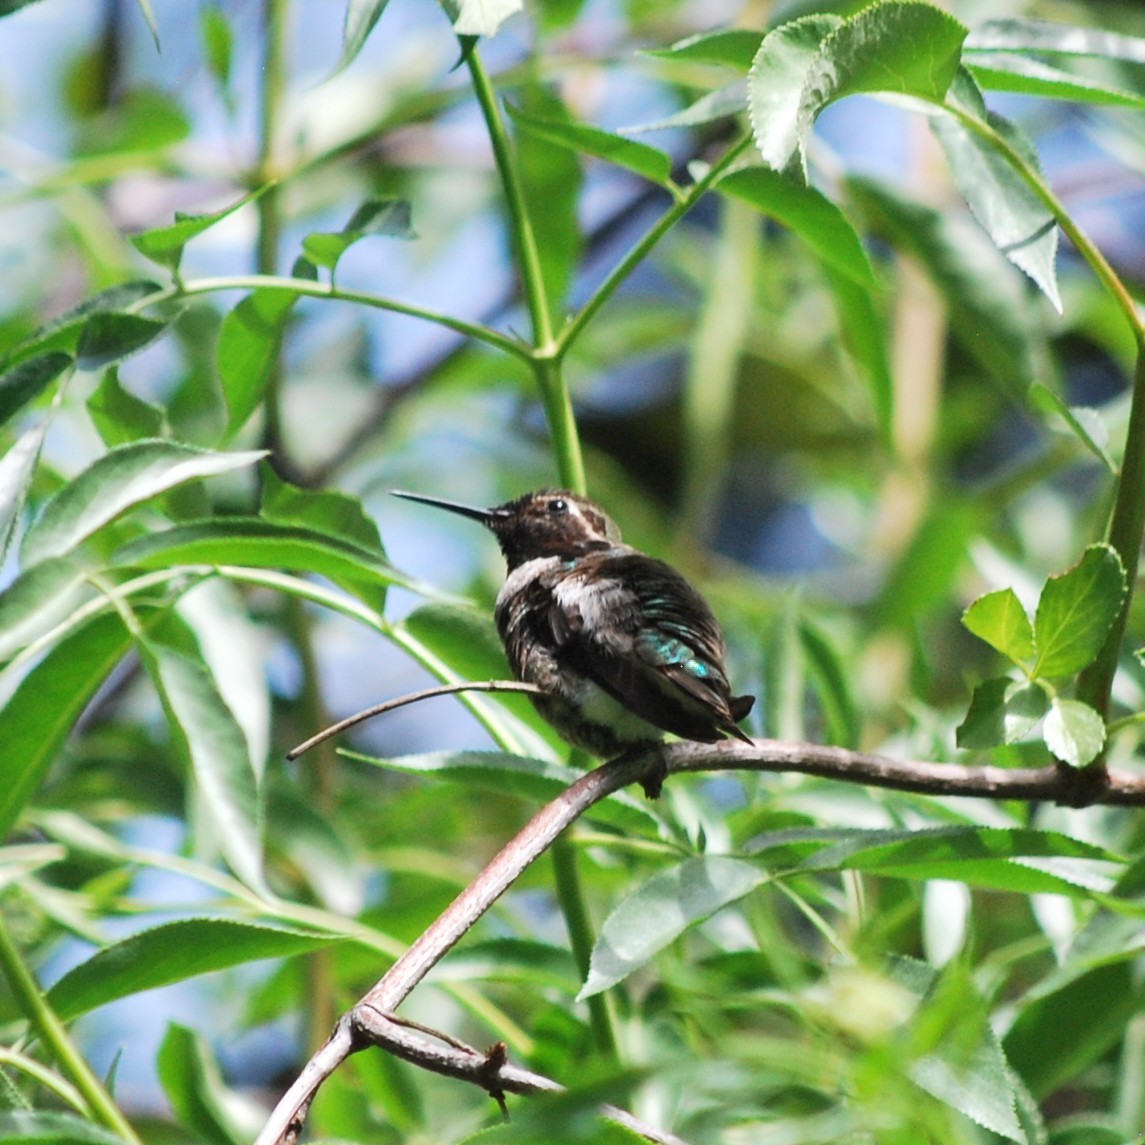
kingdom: Animalia
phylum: Chordata
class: Aves
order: Apodiformes
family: Trochilidae
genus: Calypte
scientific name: Calypte anna
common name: Anna's hummingbird
